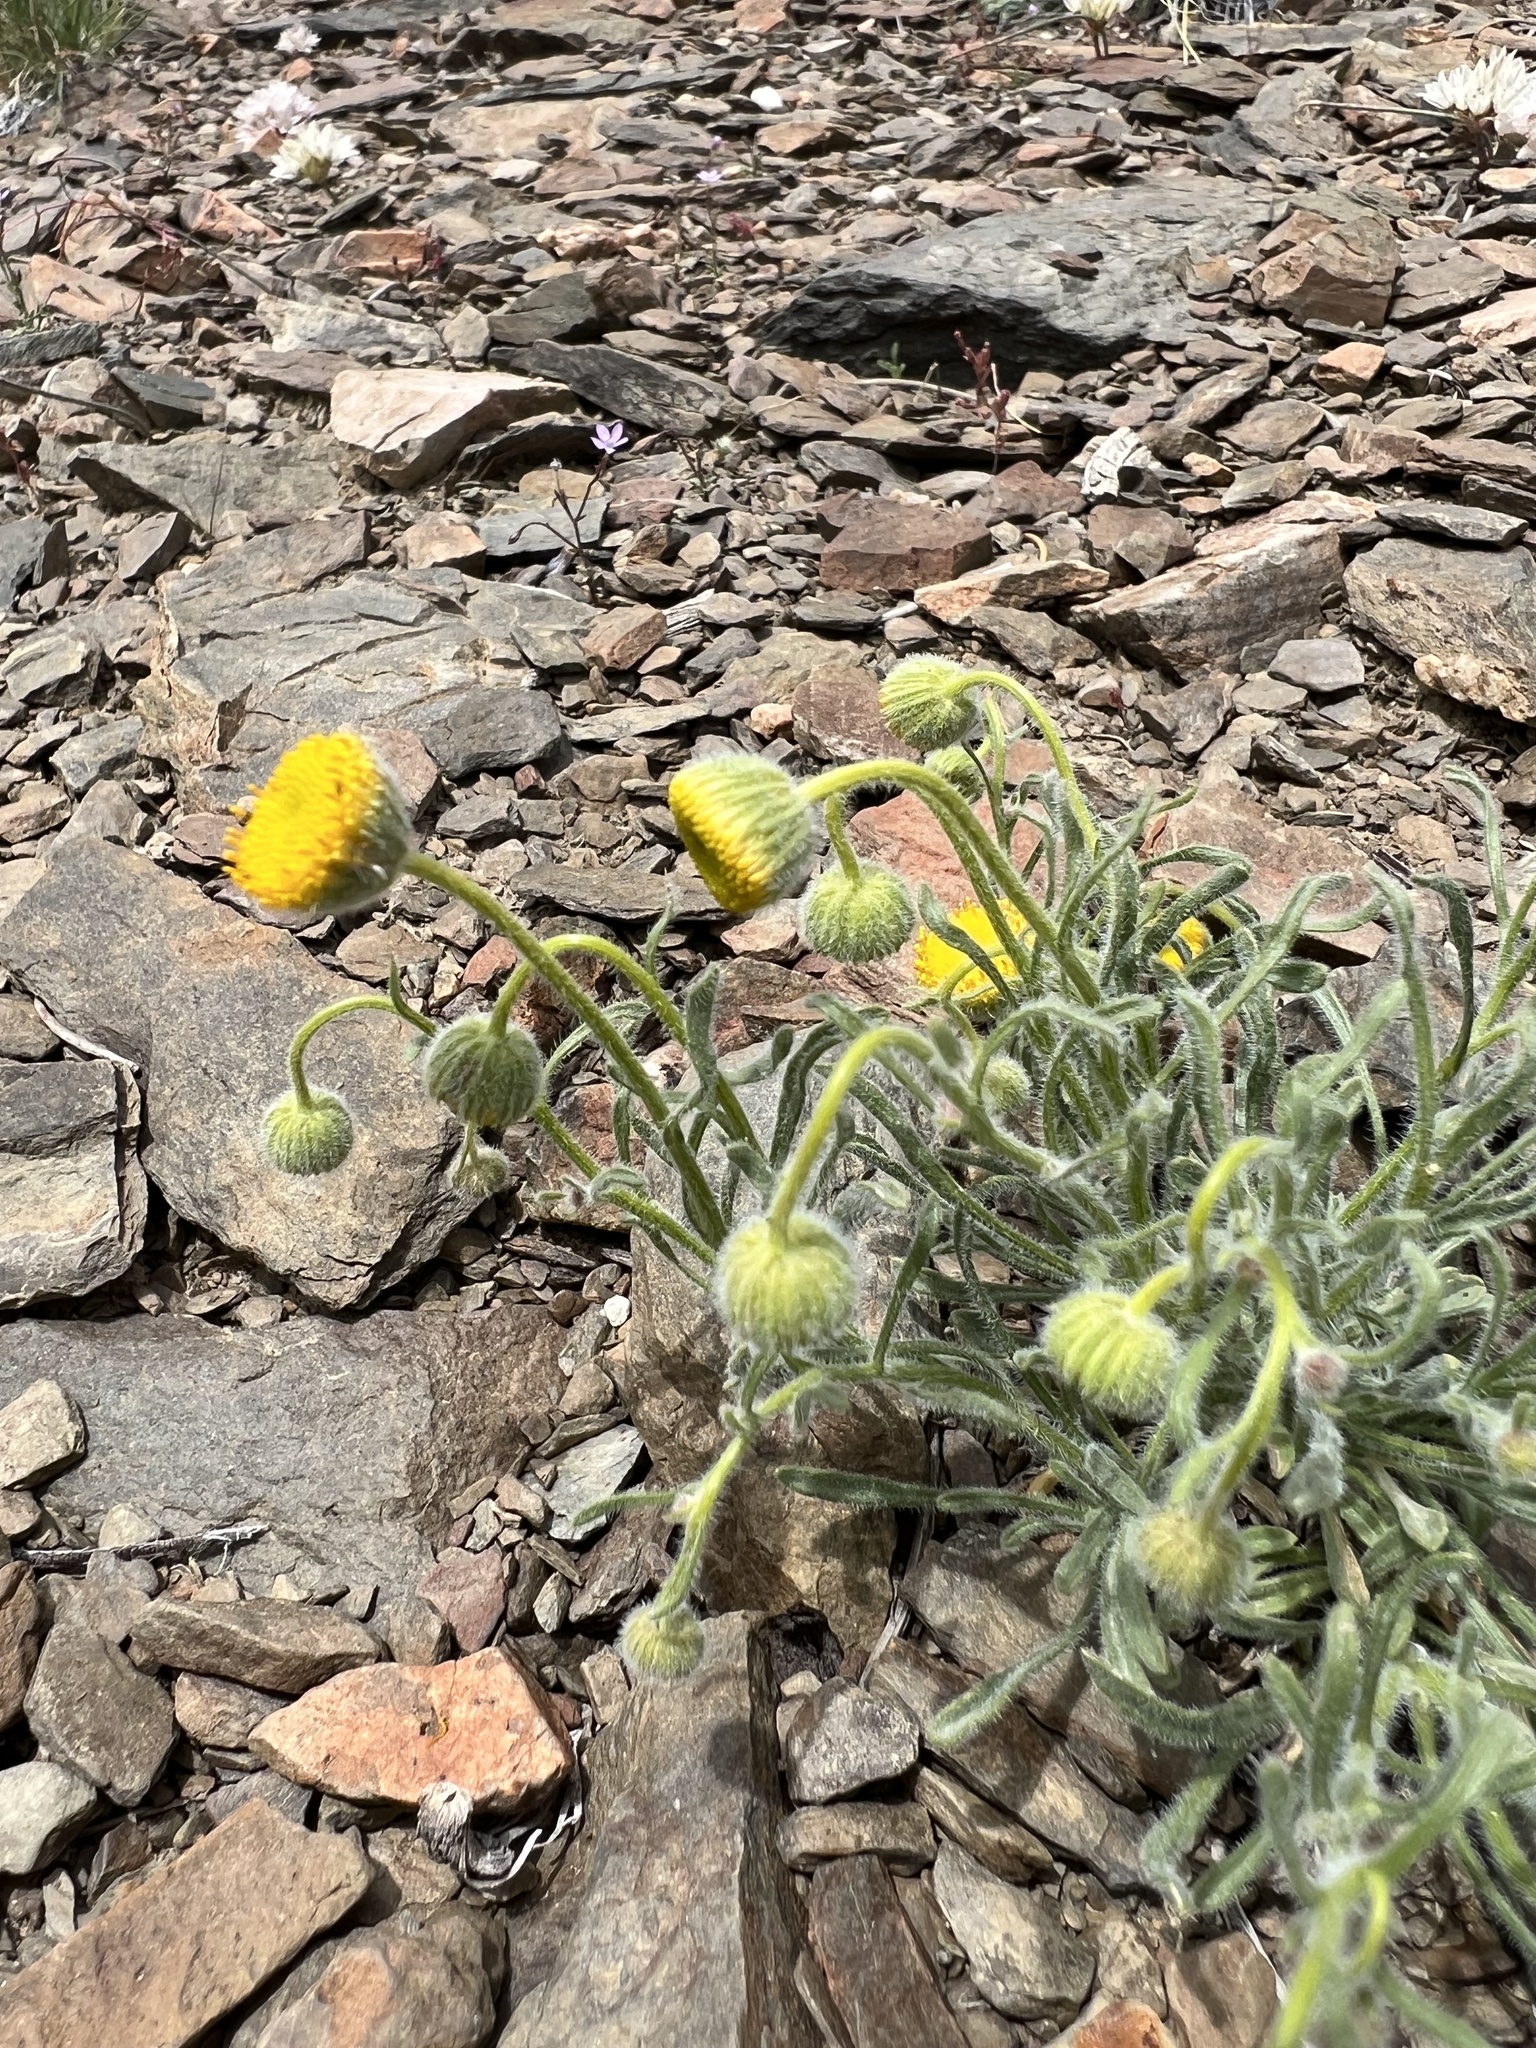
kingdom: Plantae
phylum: Tracheophyta
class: Magnoliopsida
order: Asterales
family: Asteraceae
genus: Erigeron
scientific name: Erigeron aphanactis
